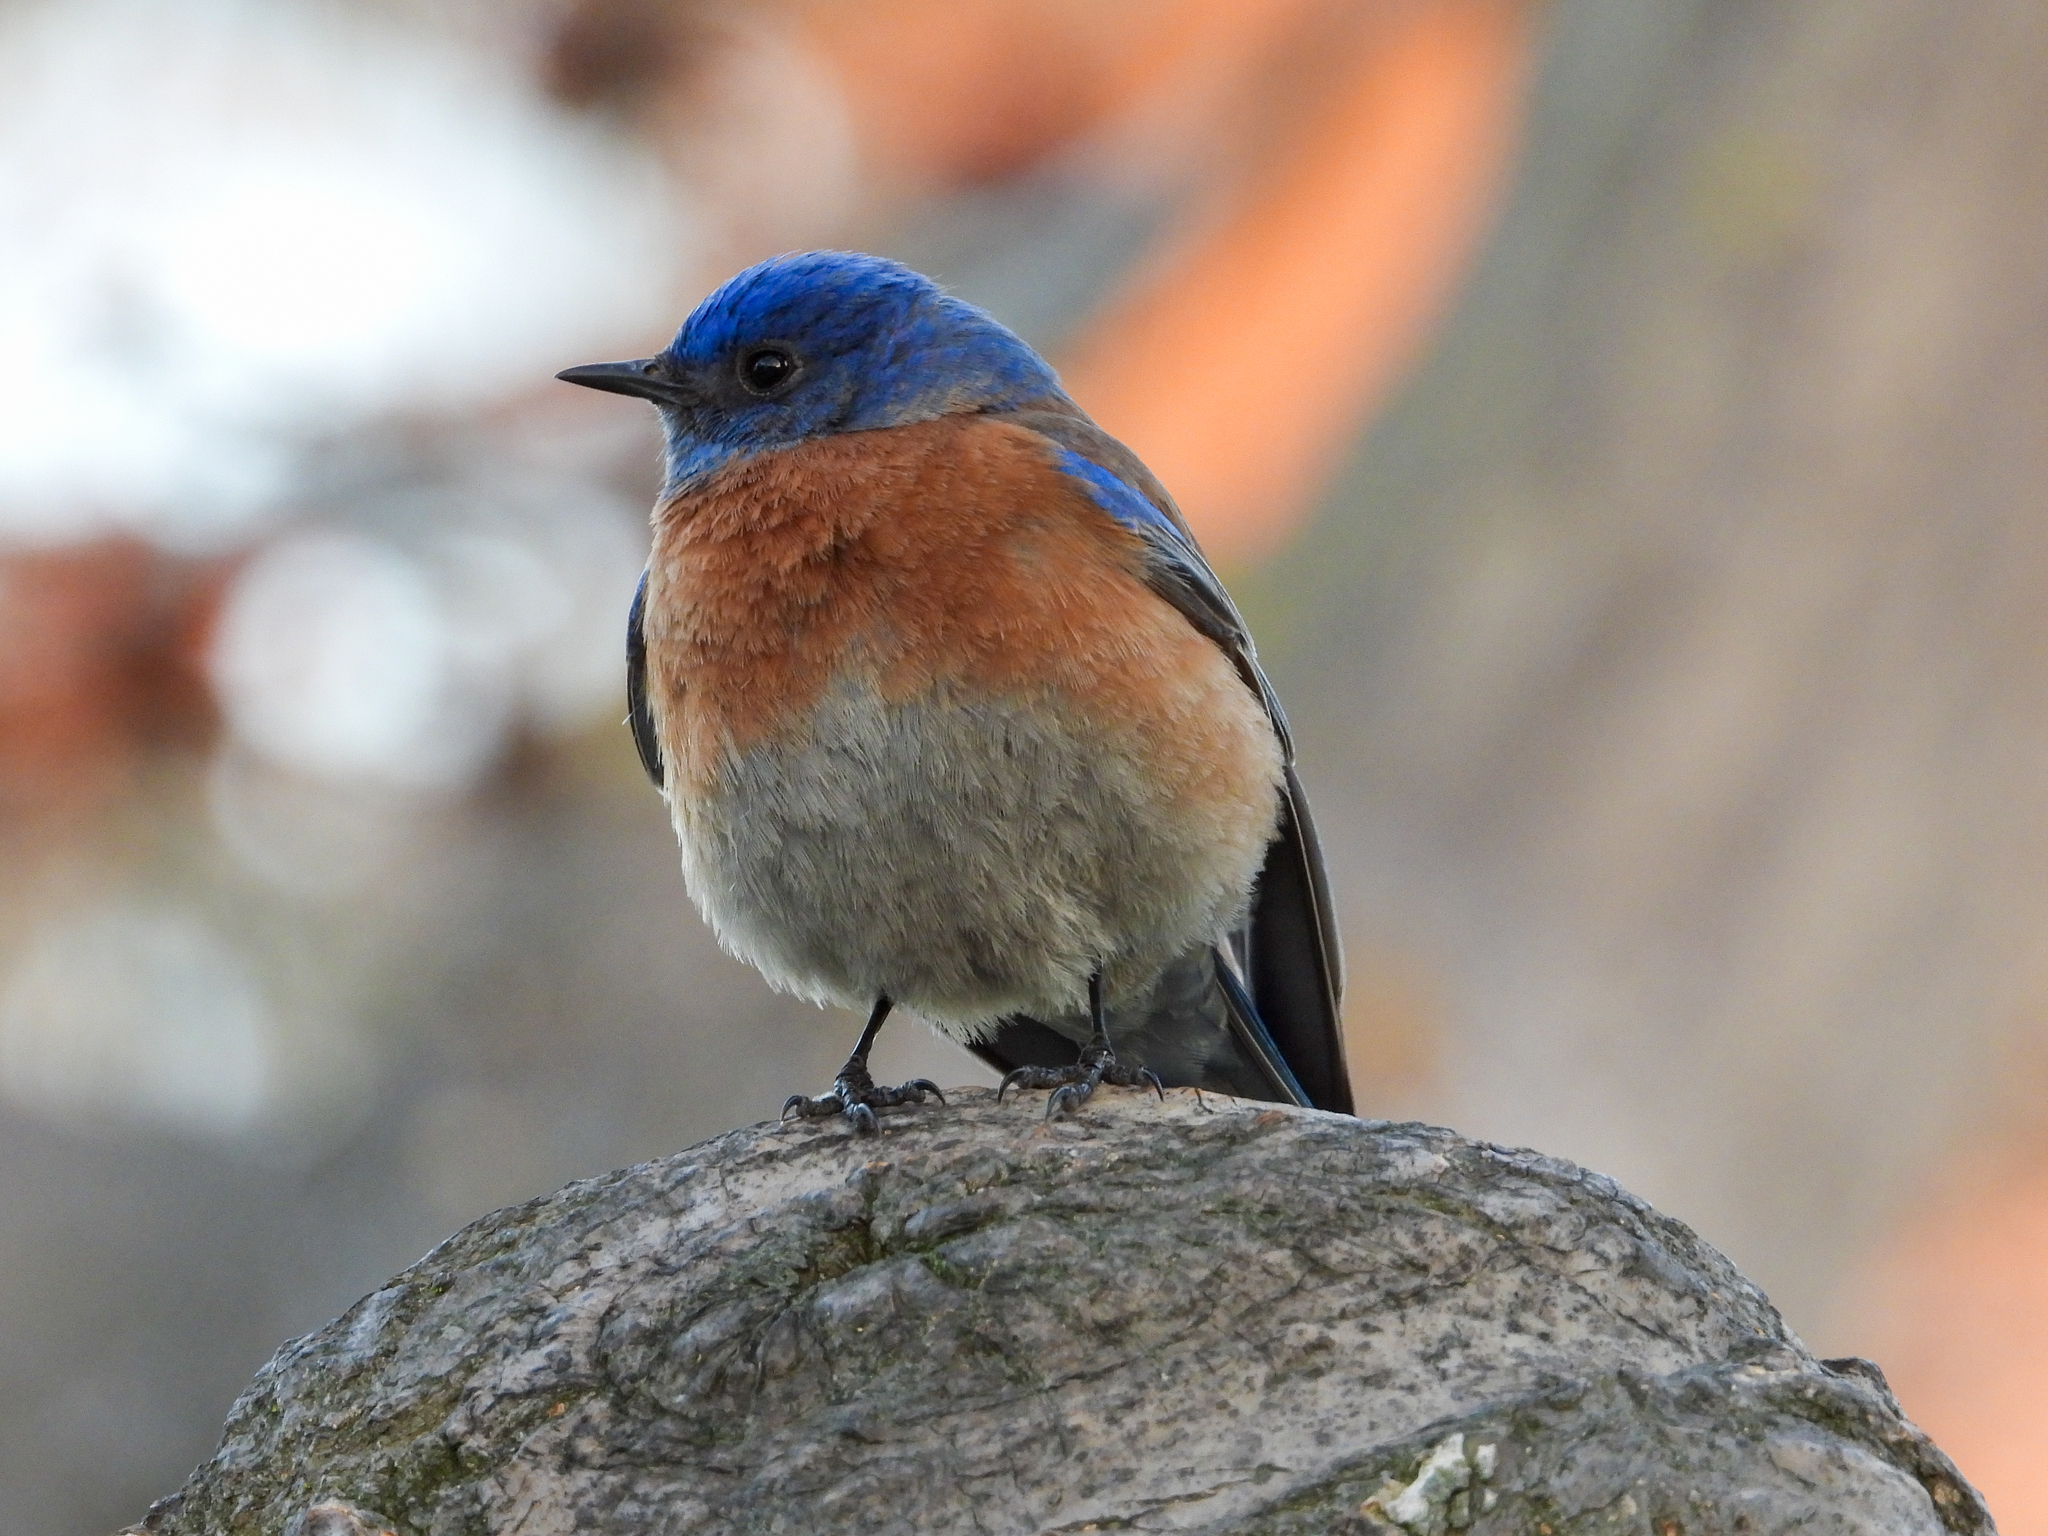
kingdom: Animalia
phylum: Chordata
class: Aves
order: Passeriformes
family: Turdidae
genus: Sialia
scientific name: Sialia mexicana
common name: Western bluebird
